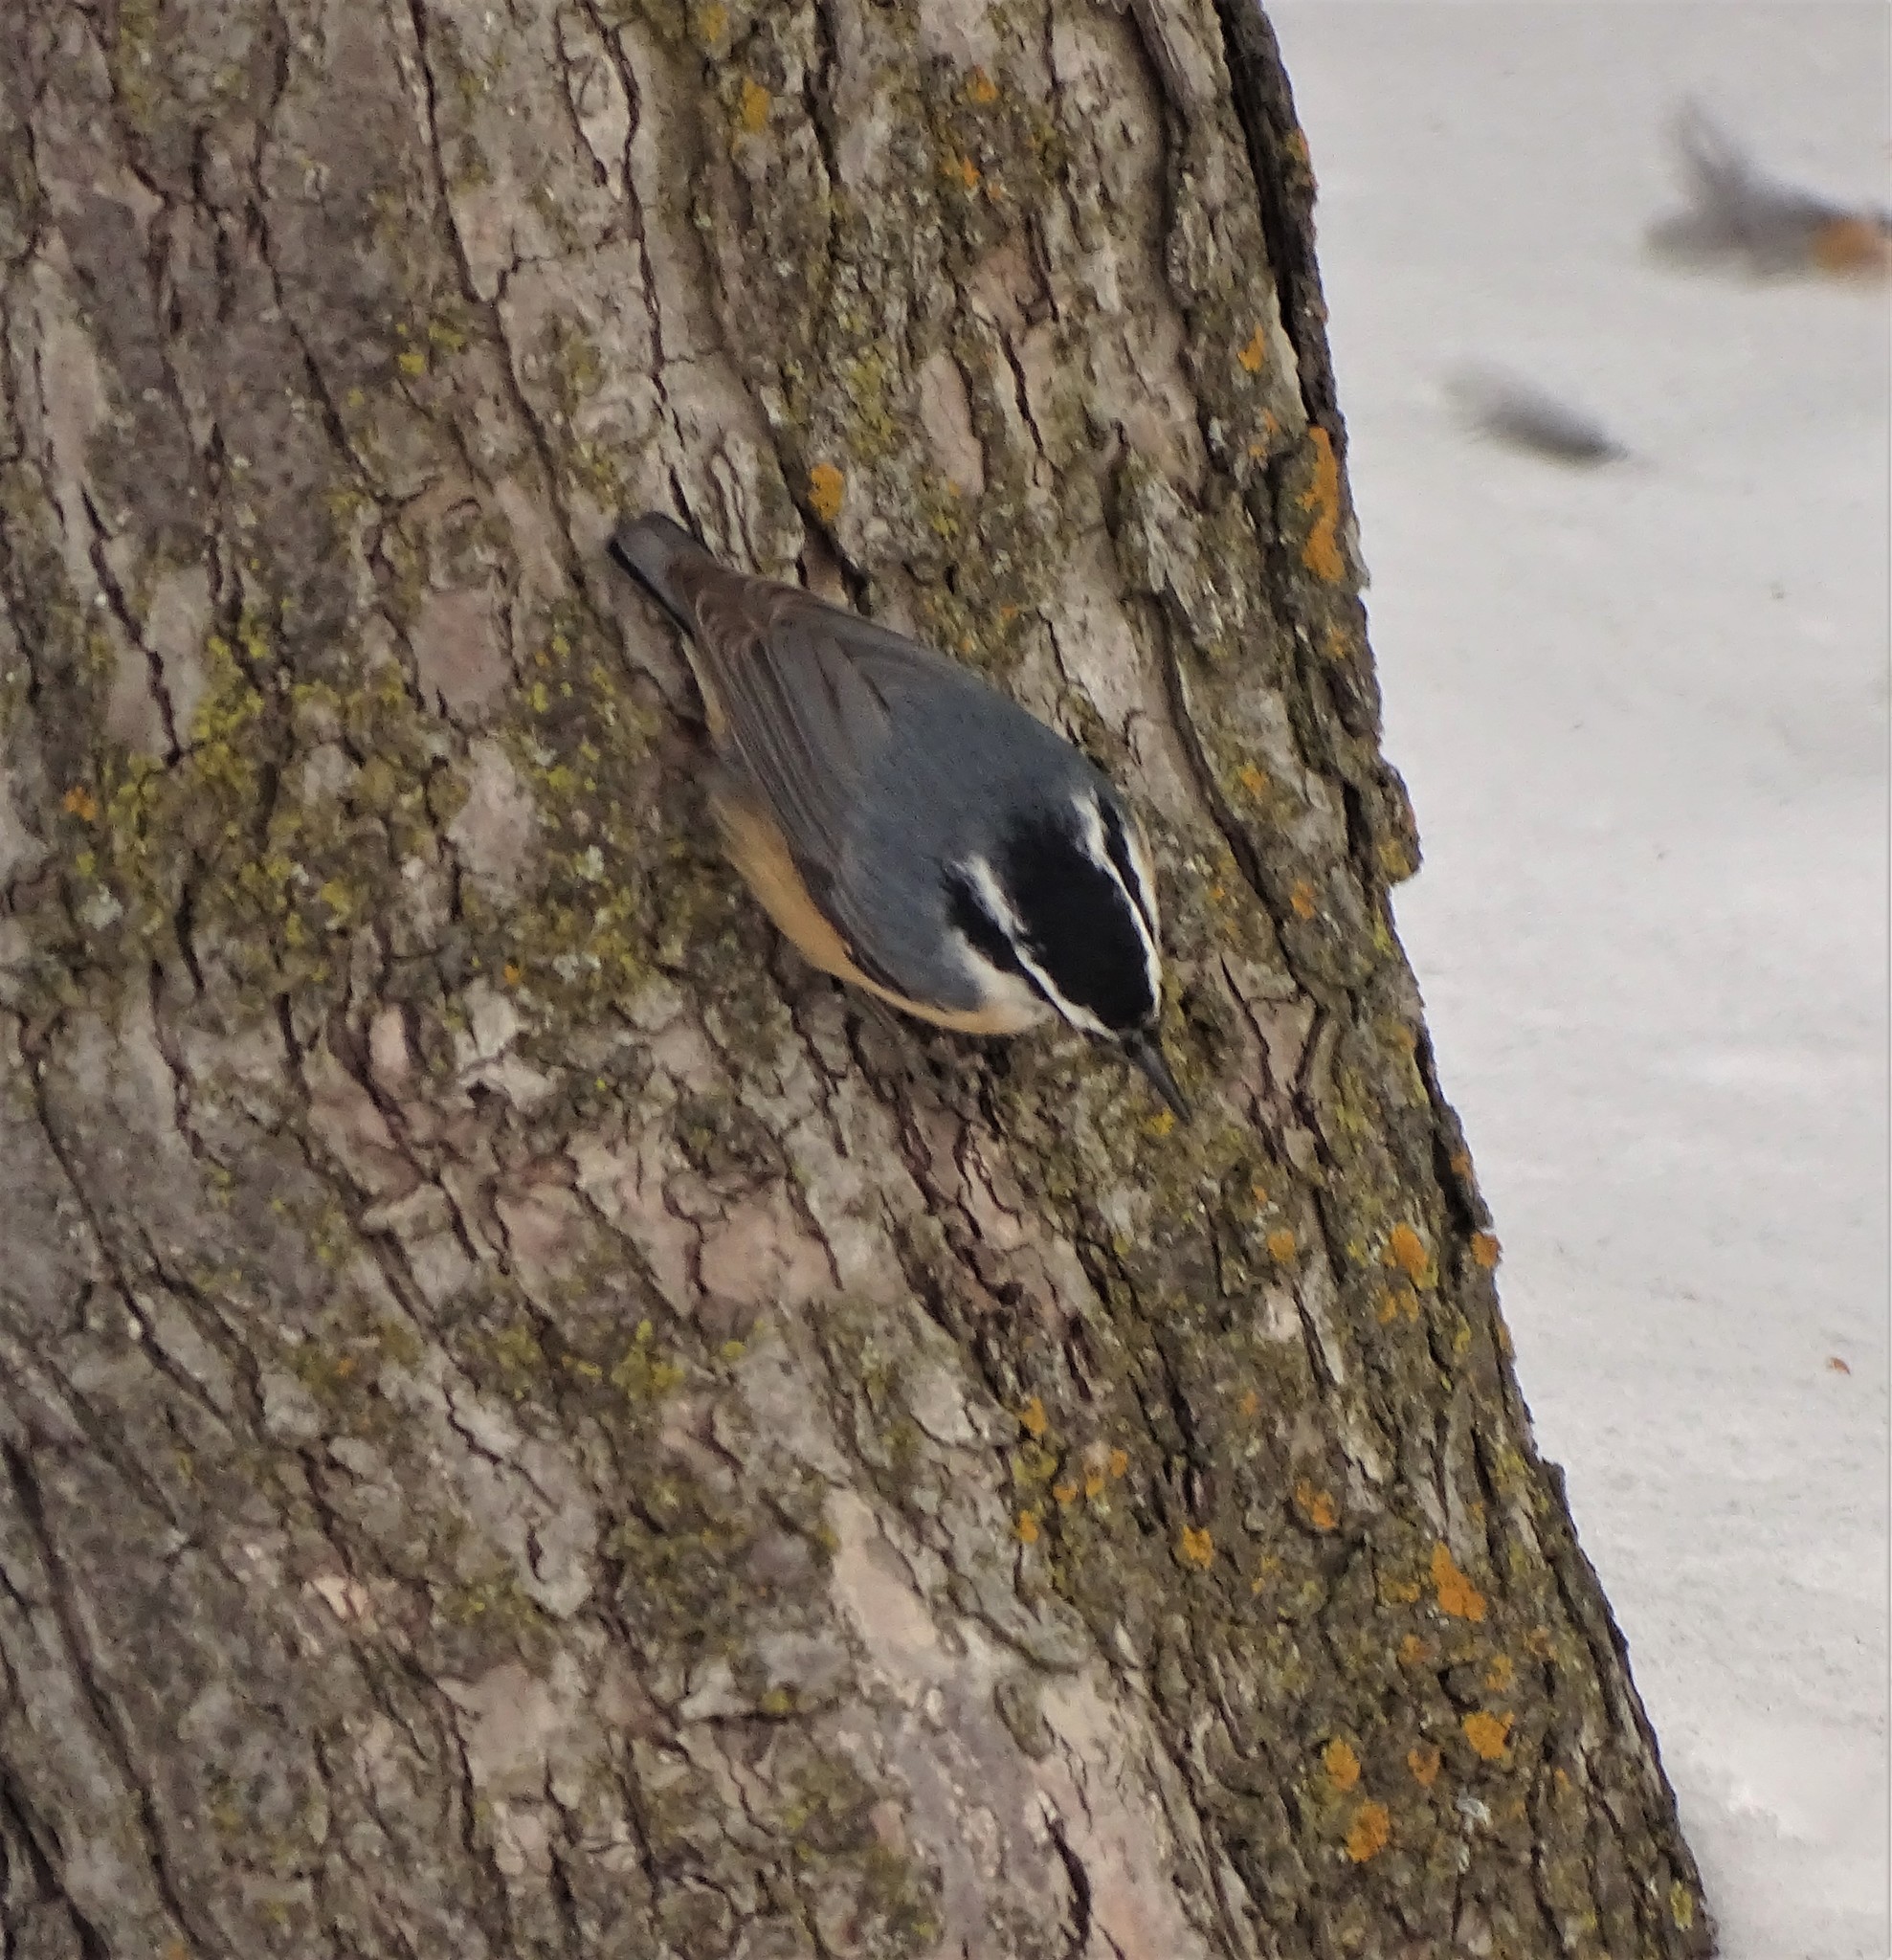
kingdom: Animalia
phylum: Chordata
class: Aves
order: Passeriformes
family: Sittidae
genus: Sitta
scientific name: Sitta canadensis
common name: Red-breasted nuthatch
